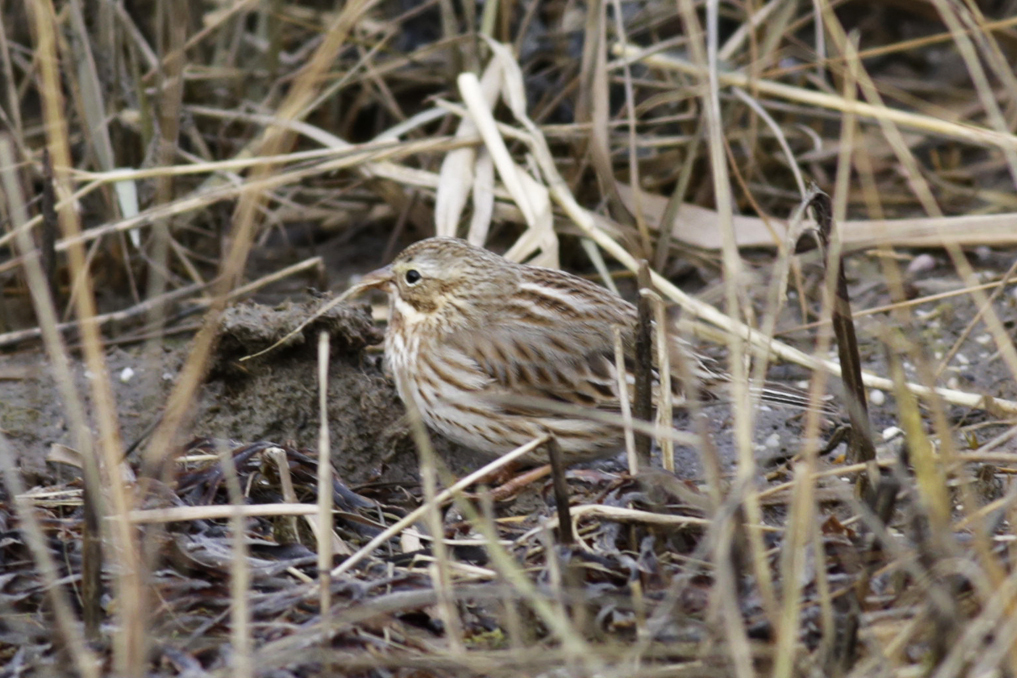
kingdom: Animalia
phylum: Chordata
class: Aves
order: Passeriformes
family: Passerellidae
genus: Passerculus
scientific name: Passerculus sandwichensis
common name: Savannah sparrow
